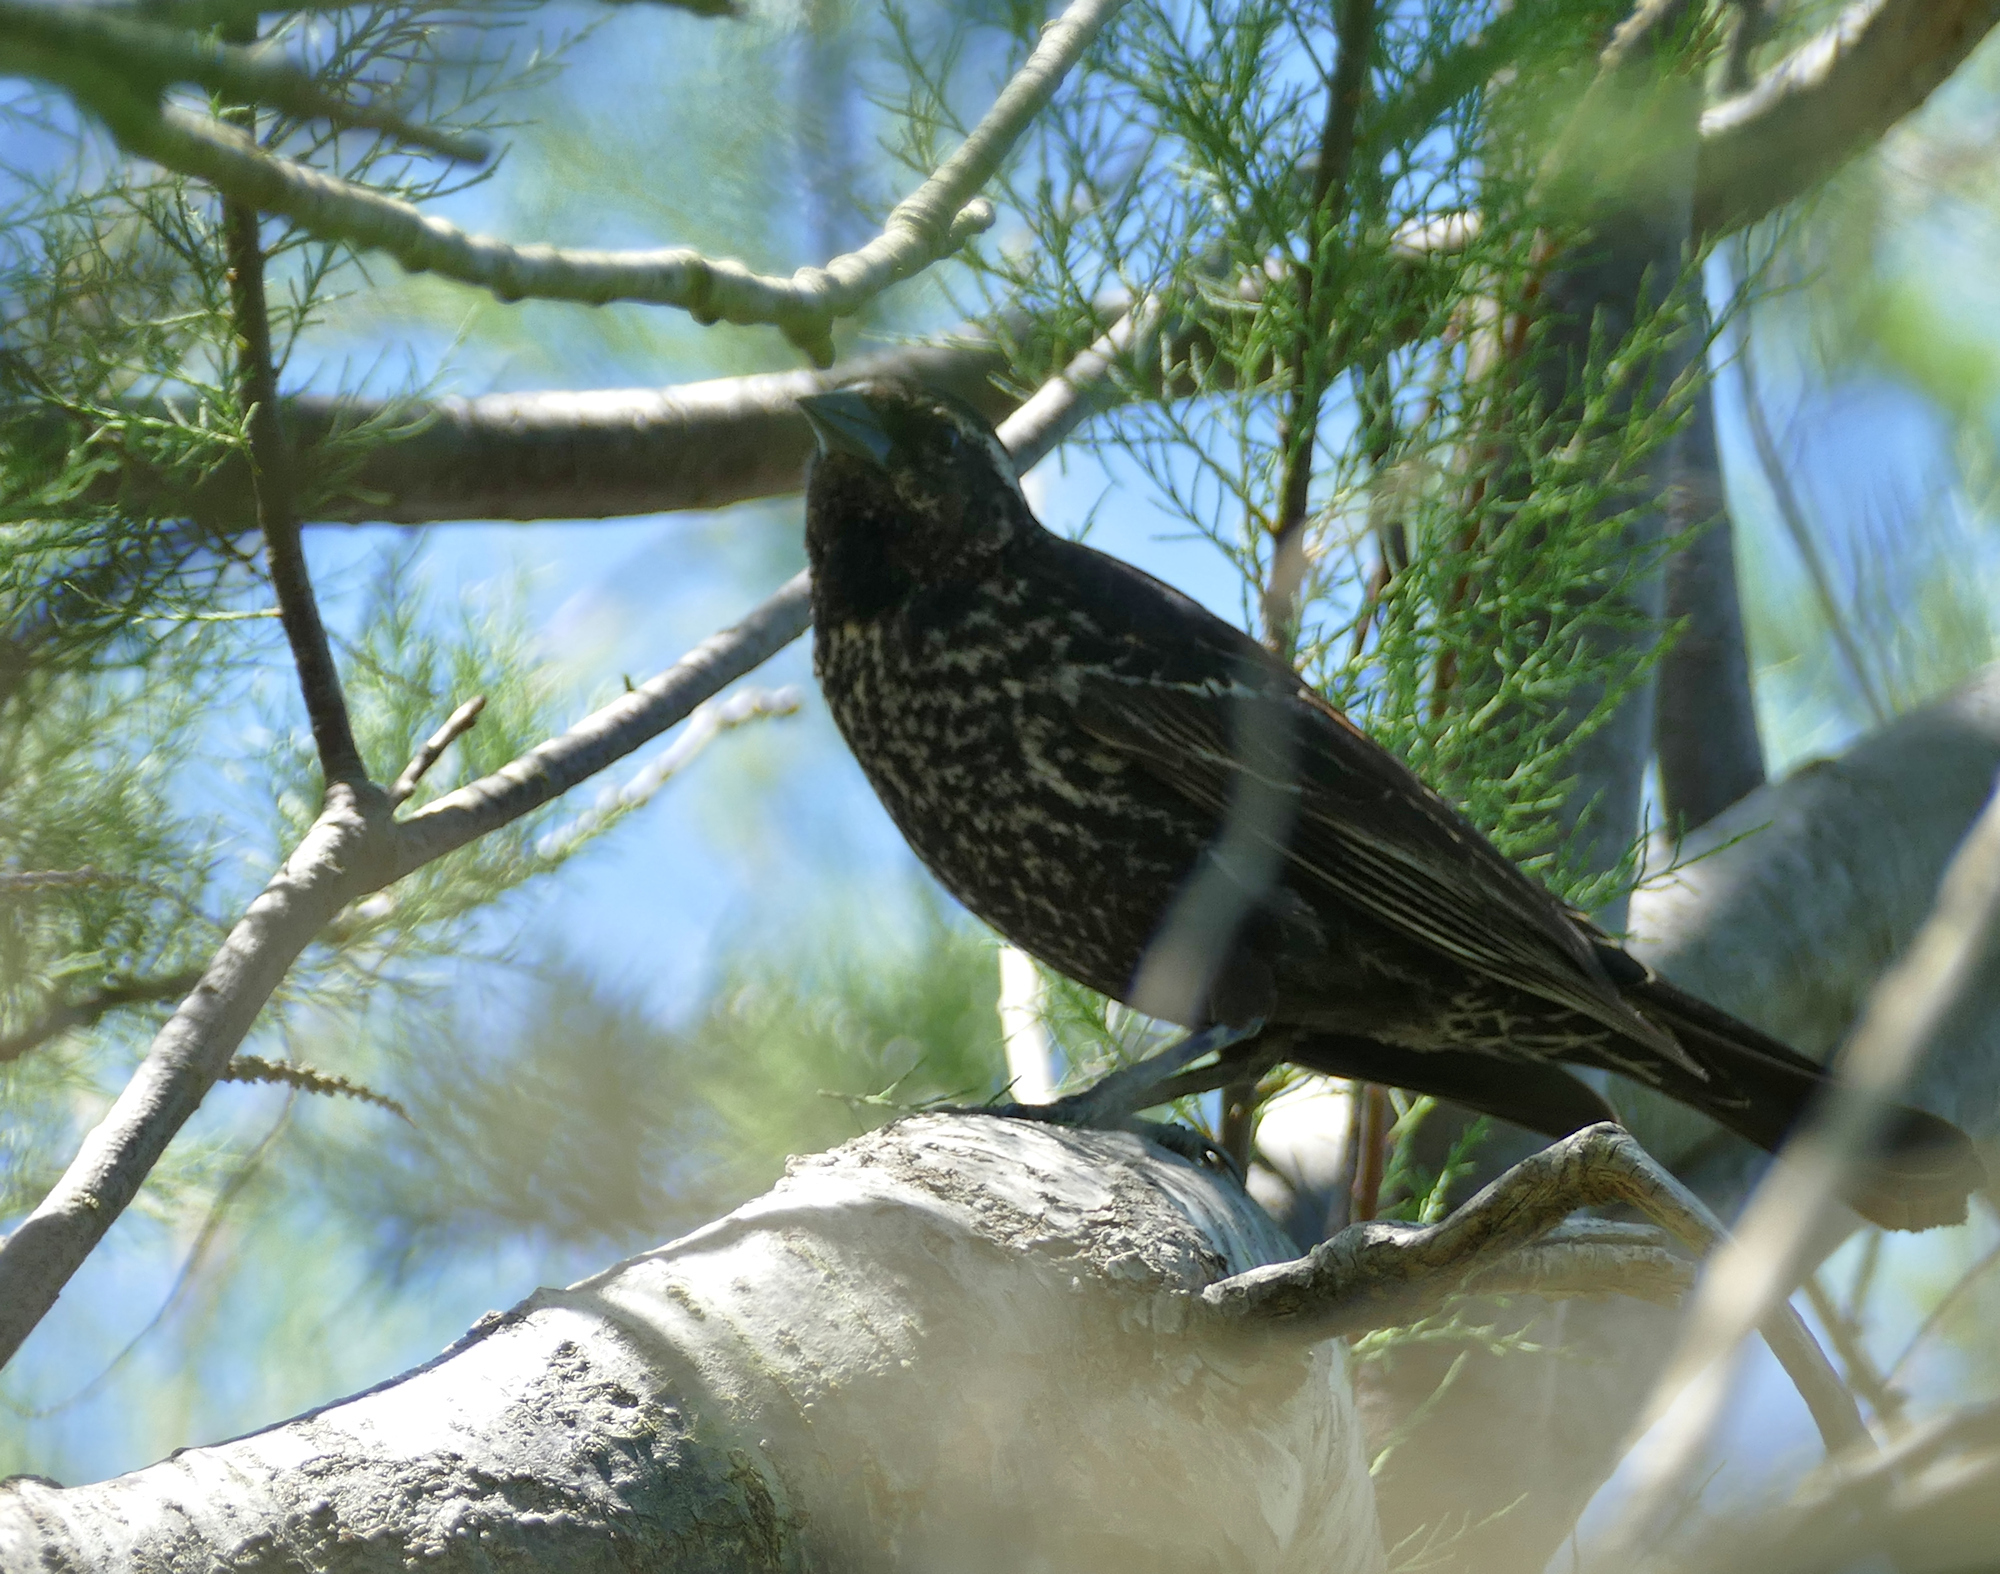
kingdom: Animalia
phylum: Chordata
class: Aves
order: Passeriformes
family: Icteridae
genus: Agelaius
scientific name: Agelaius phoeniceus
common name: Red-winged blackbird
